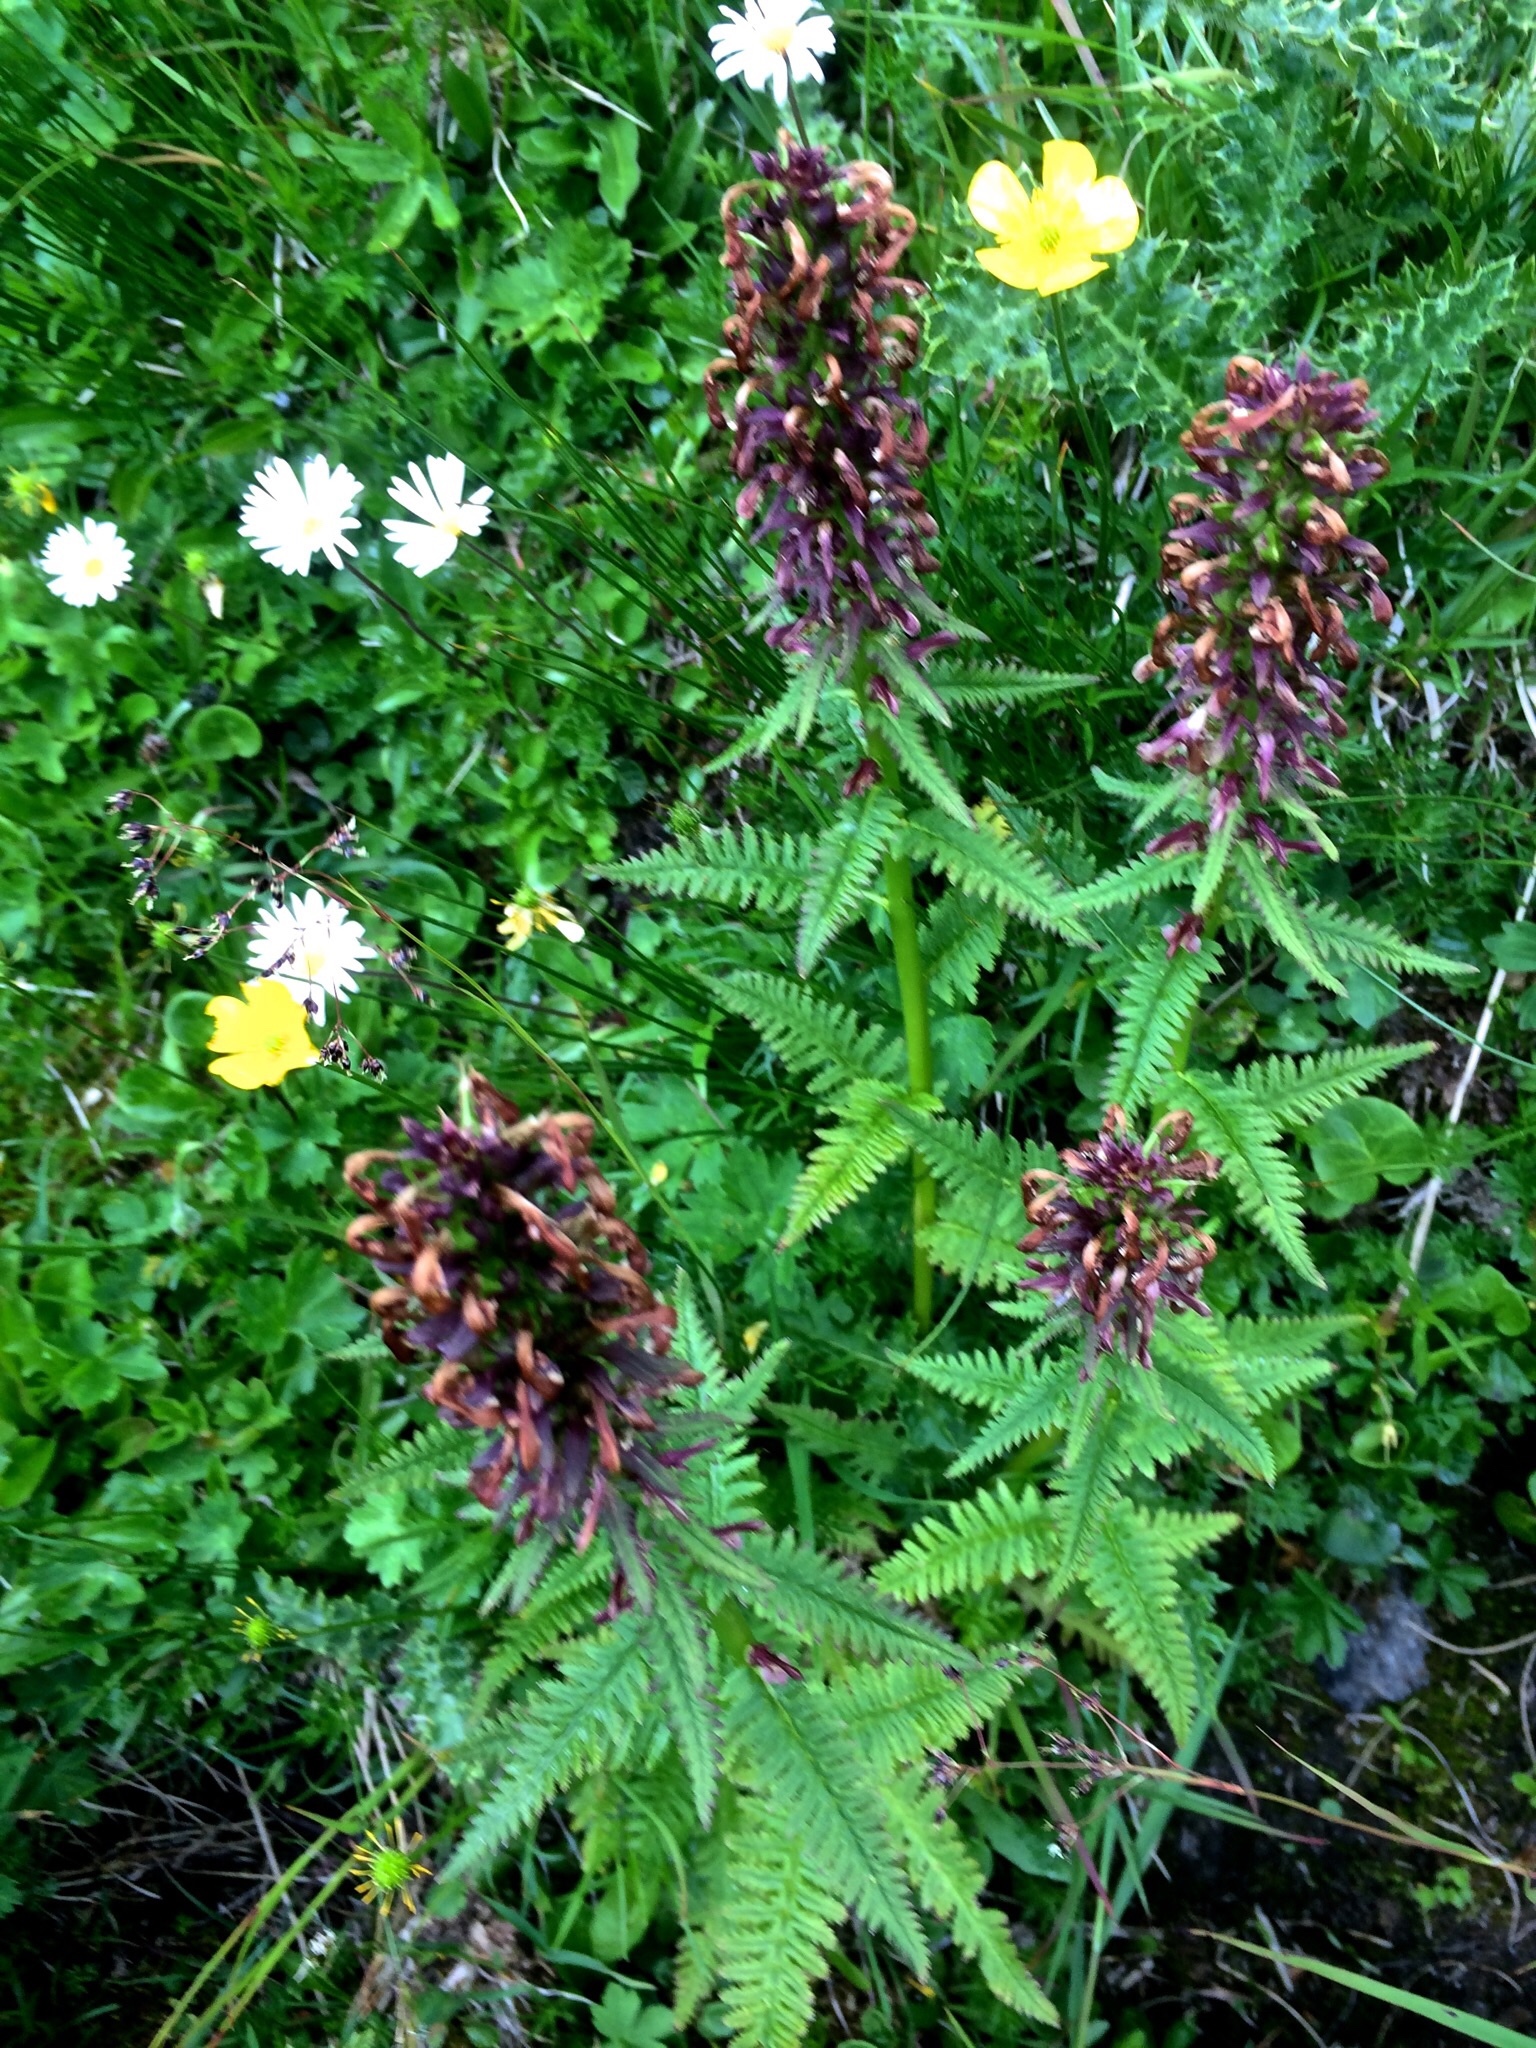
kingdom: Plantae
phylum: Tracheophyta
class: Magnoliopsida
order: Lamiales
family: Orobanchaceae
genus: Pedicularis
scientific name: Pedicularis recutita
